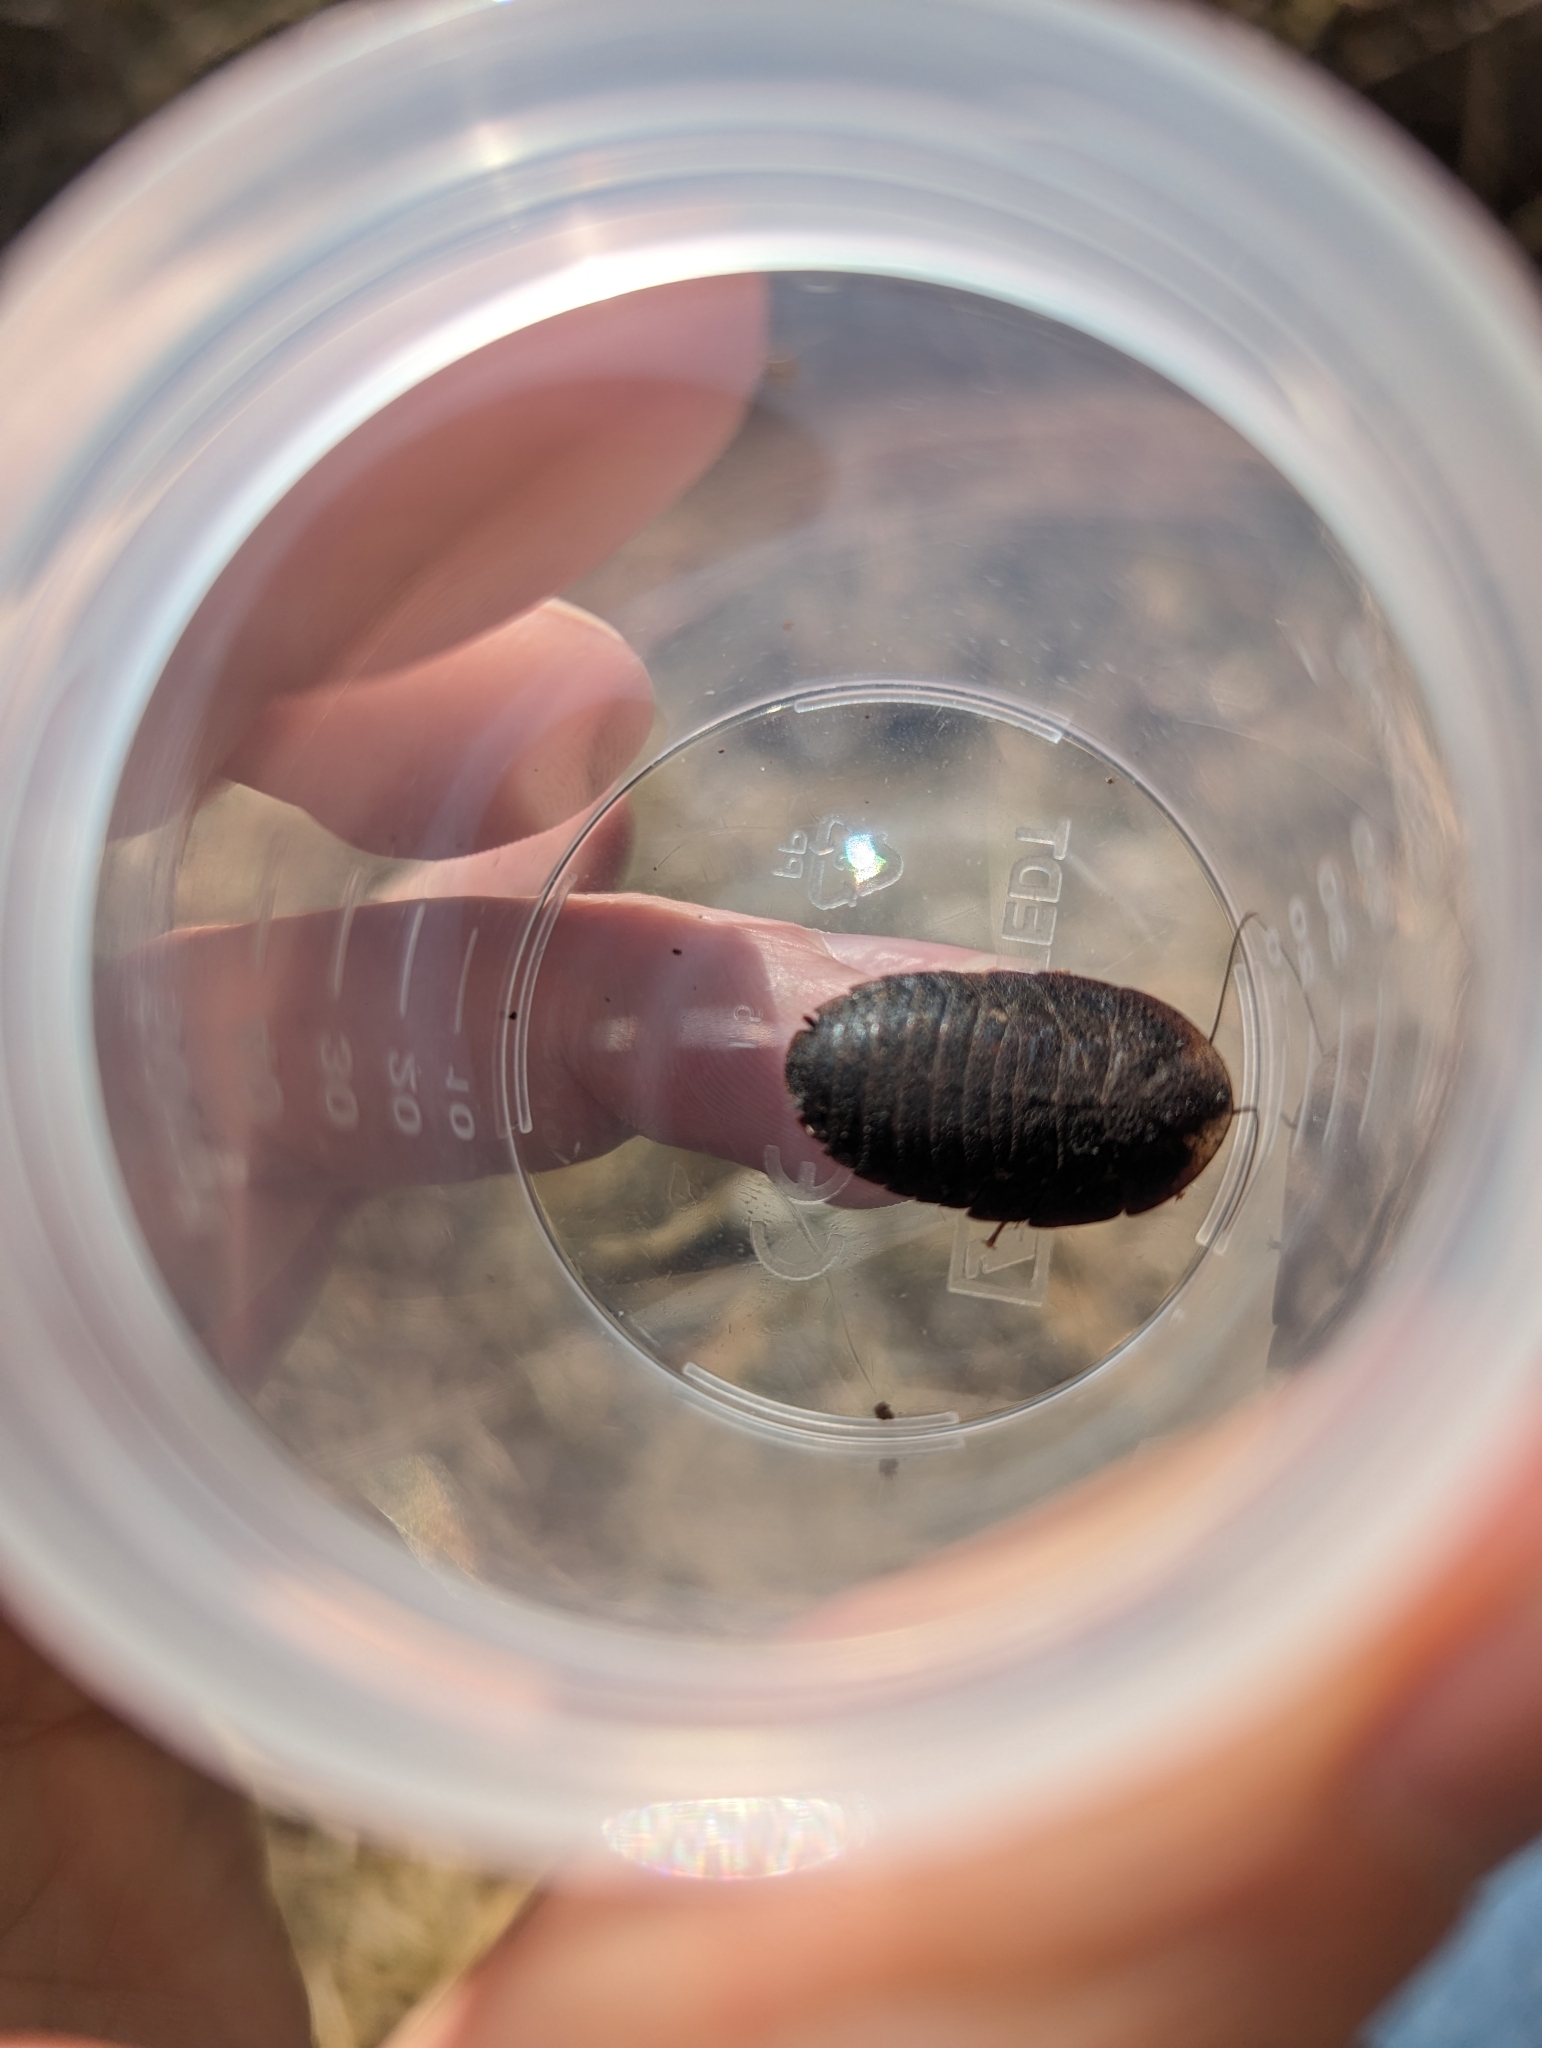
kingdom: Animalia
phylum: Arthropoda
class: Insecta
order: Blattodea
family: Blaberidae
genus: Laxta
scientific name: Laxta granicollis
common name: Bark cockroach
